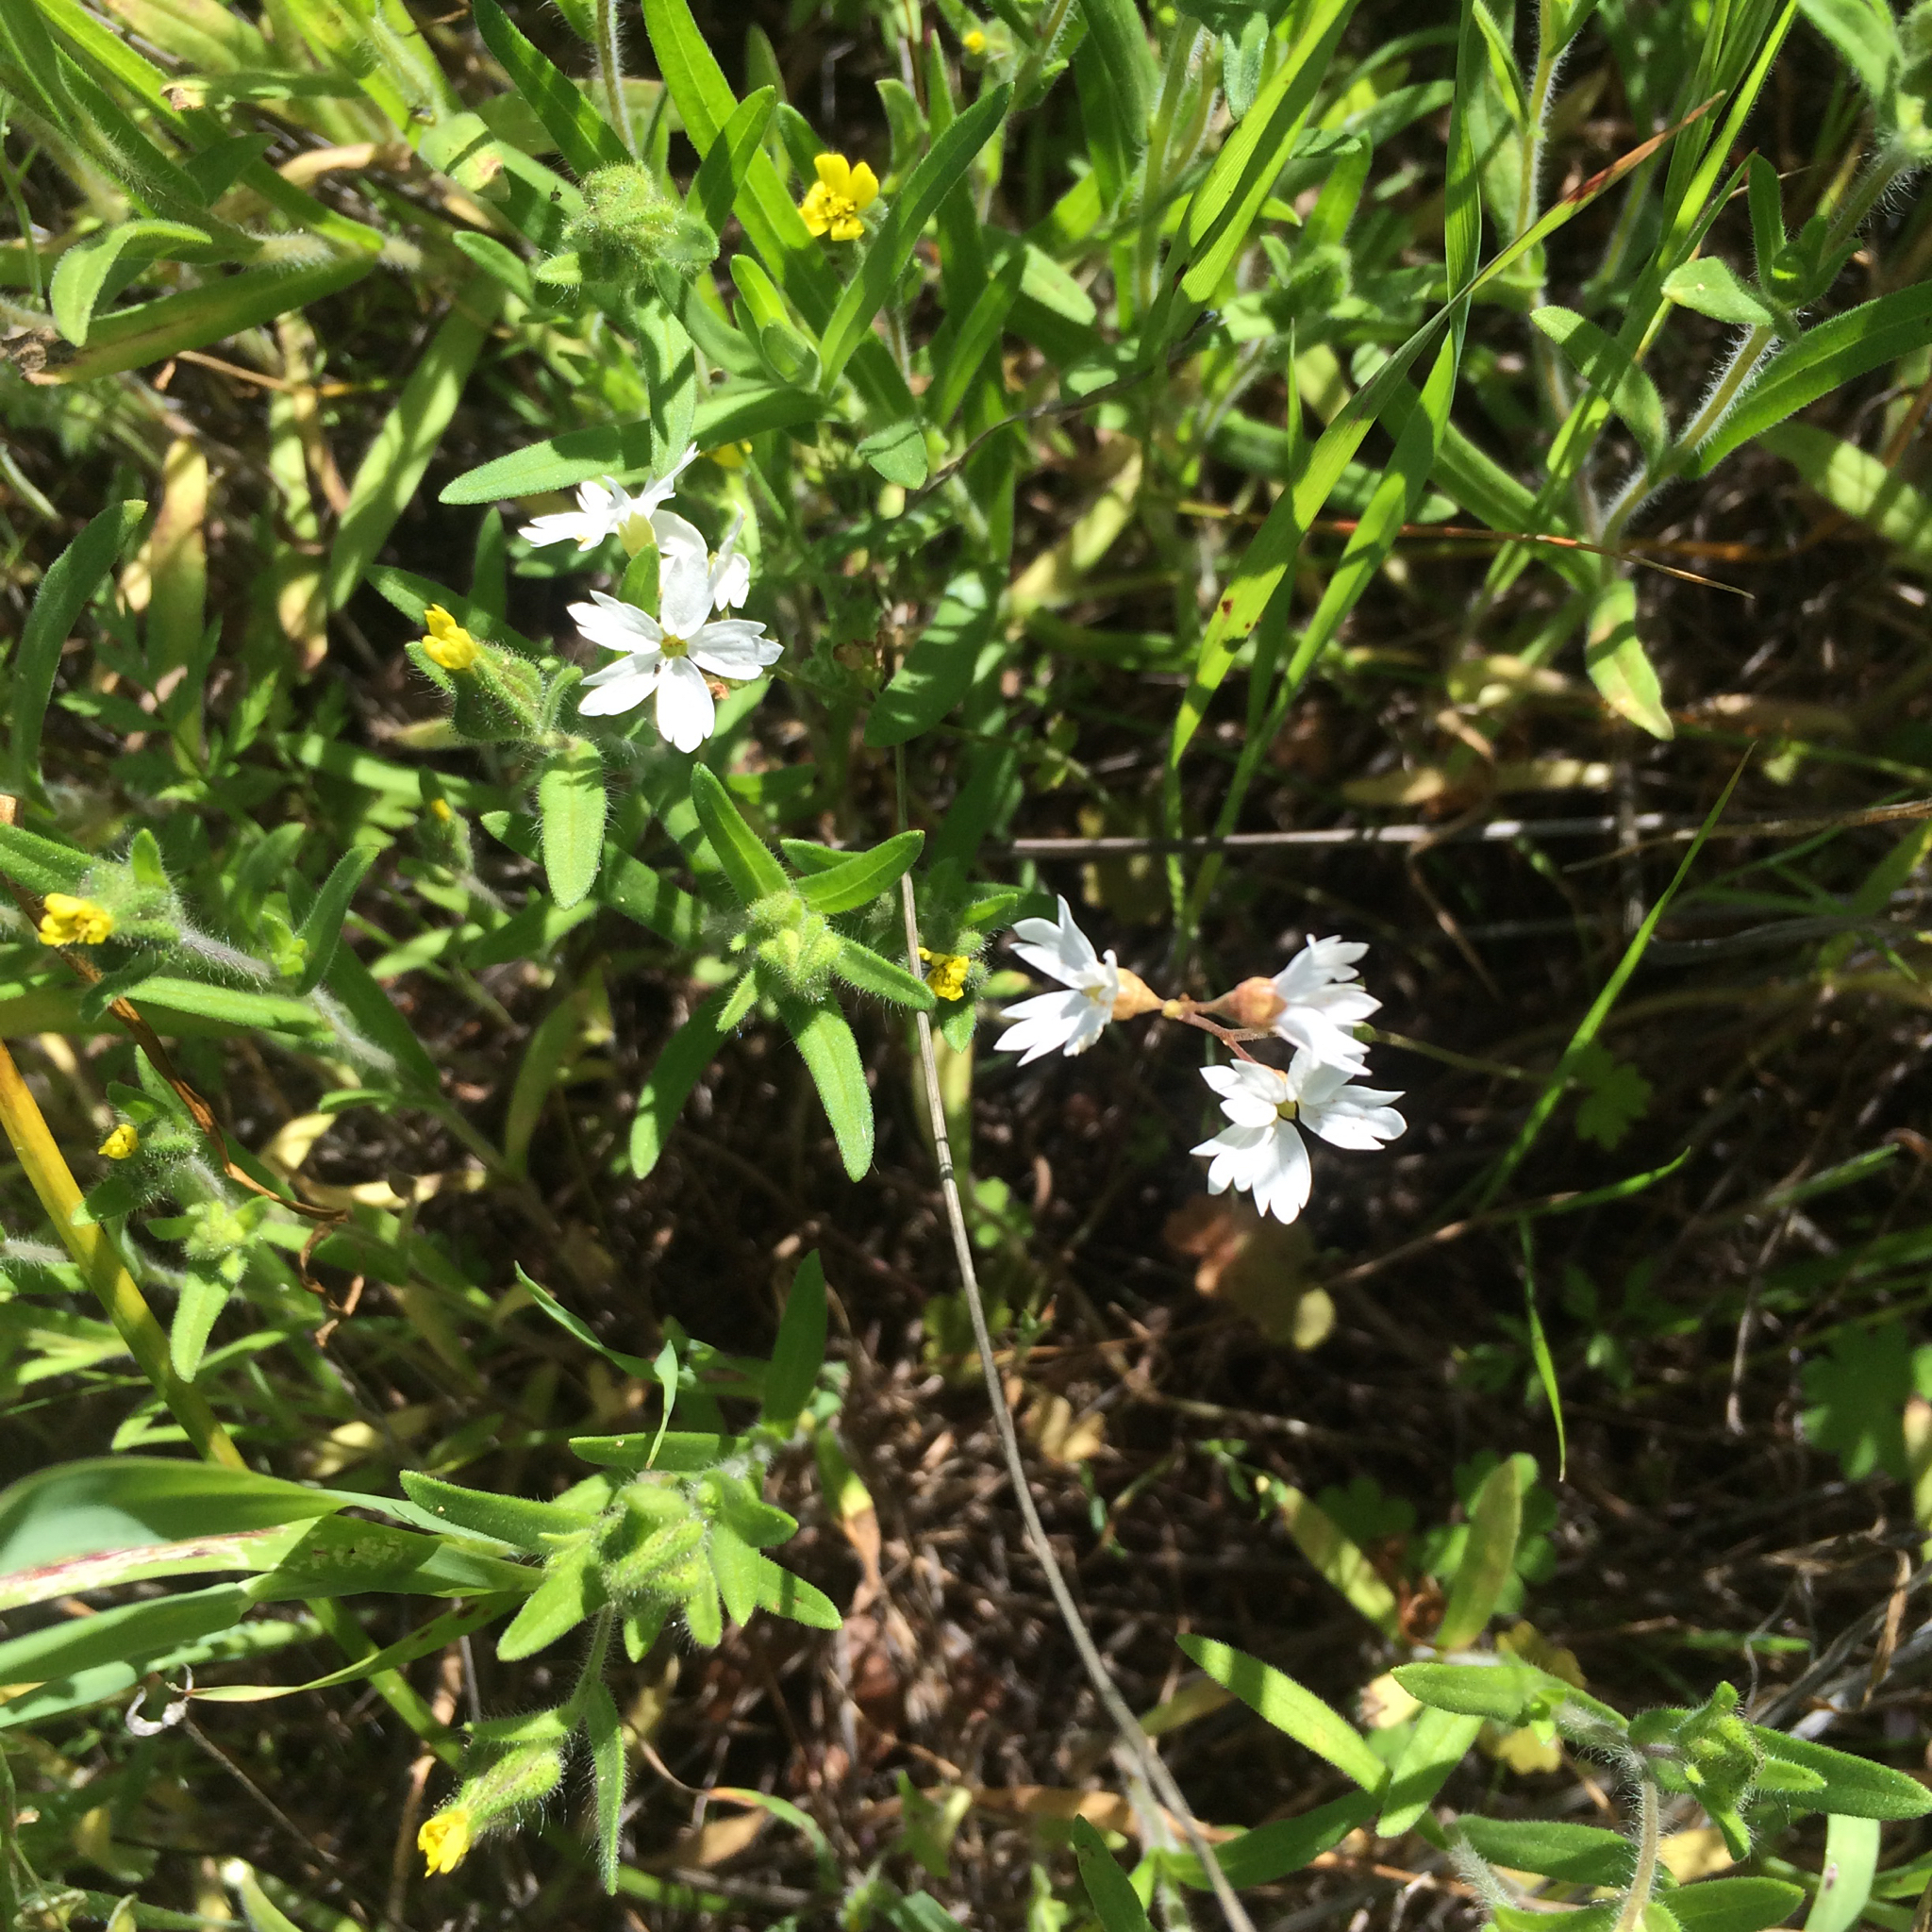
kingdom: Plantae
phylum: Tracheophyta
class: Magnoliopsida
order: Saxifragales
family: Saxifragaceae
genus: Lithophragma
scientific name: Lithophragma affine
